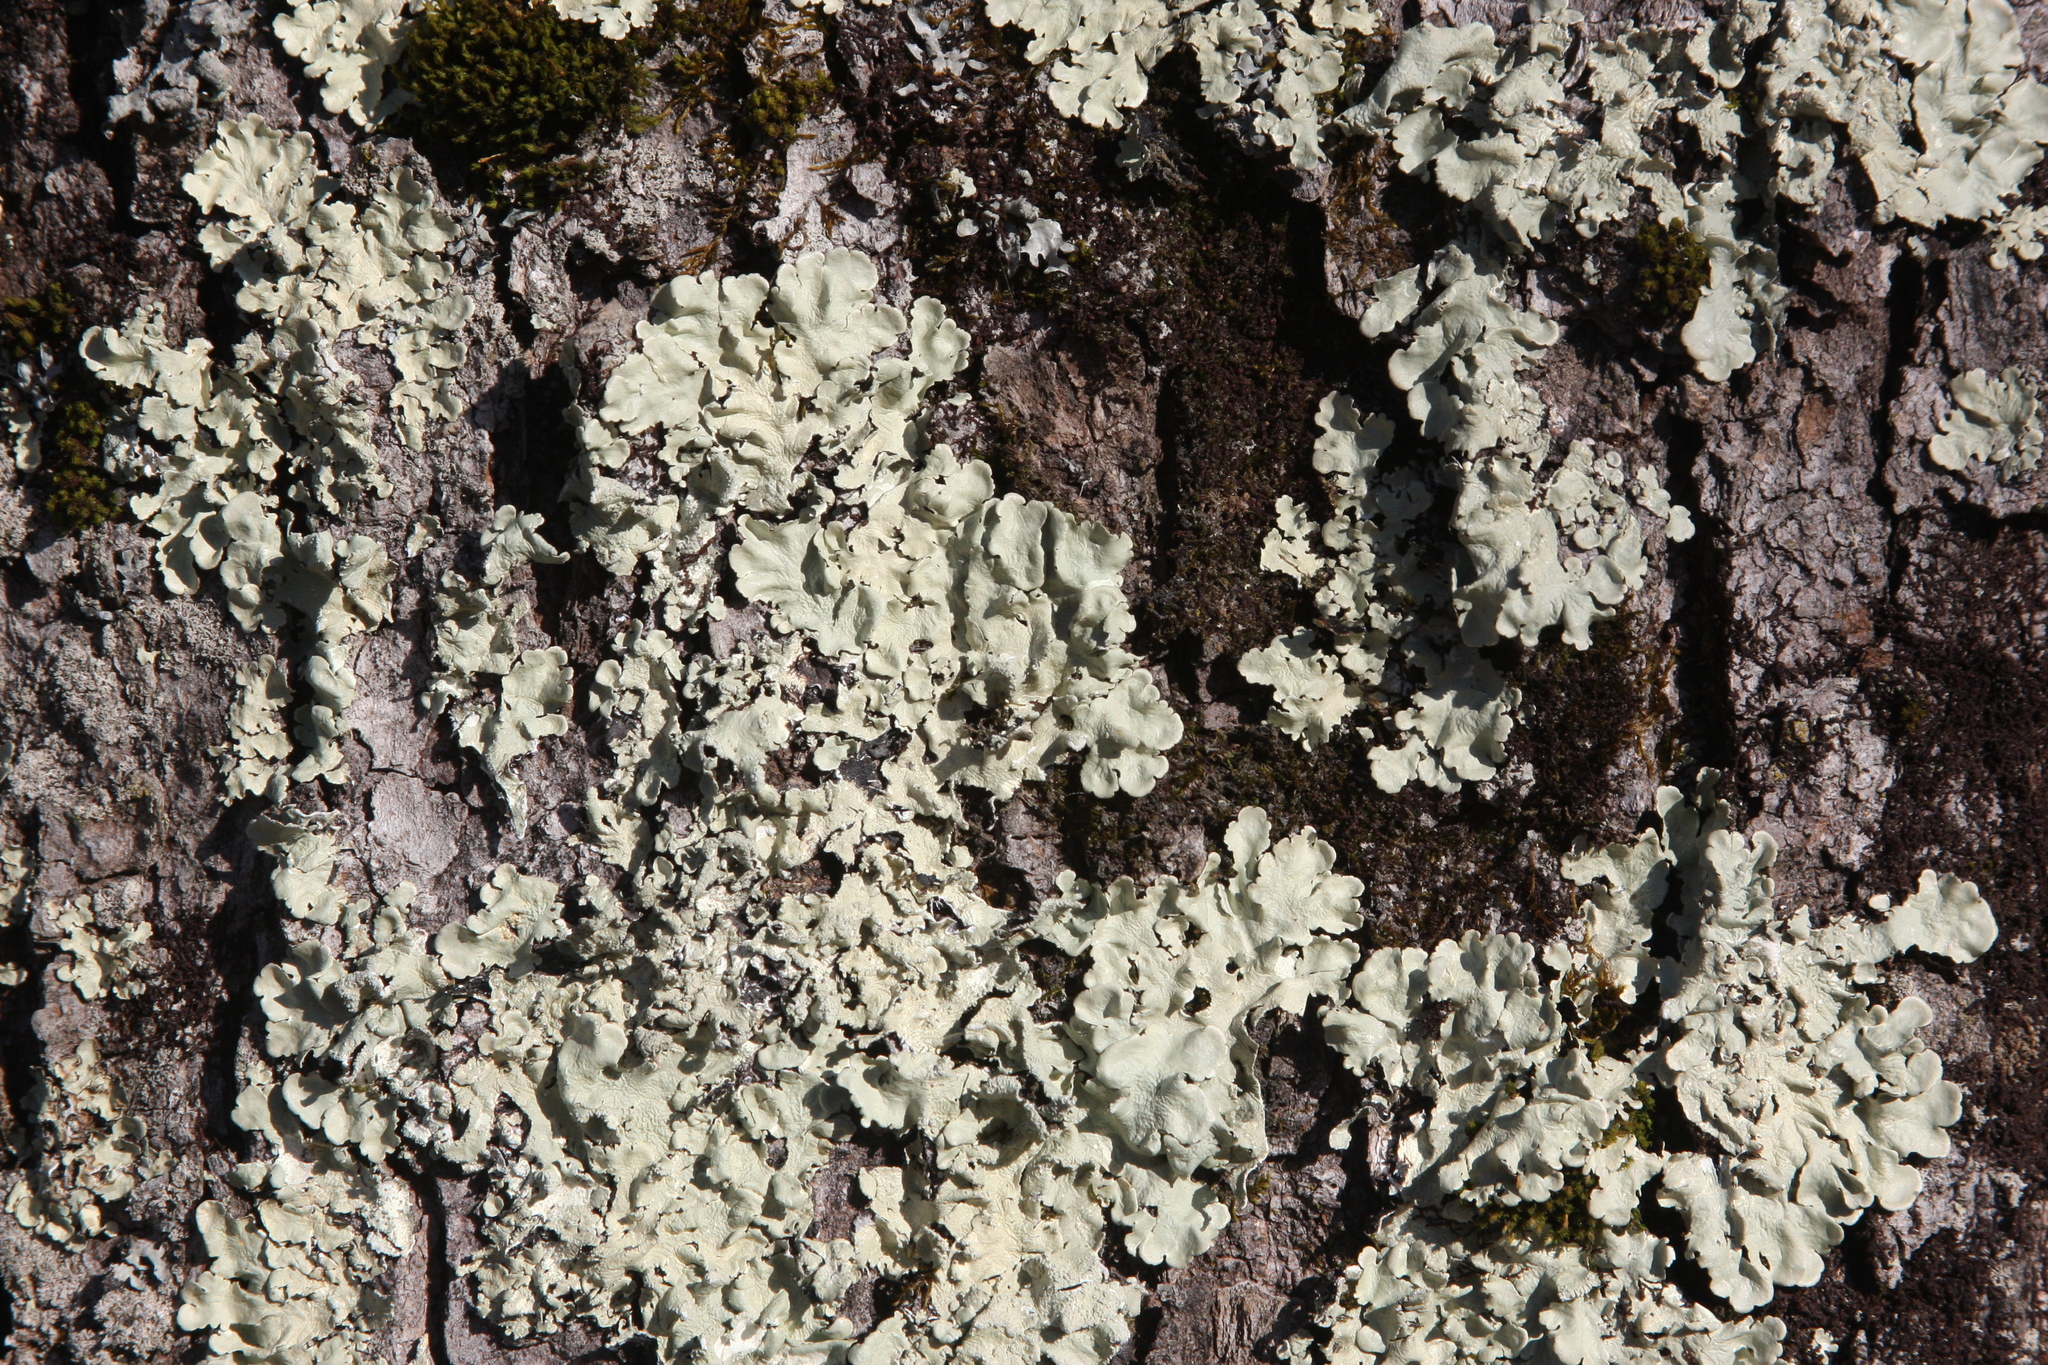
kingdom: Fungi
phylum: Ascomycota
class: Lecanoromycetes
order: Lecanorales
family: Parmeliaceae
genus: Flavoparmelia
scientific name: Flavoparmelia caperata
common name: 40-mile per hour lichen
